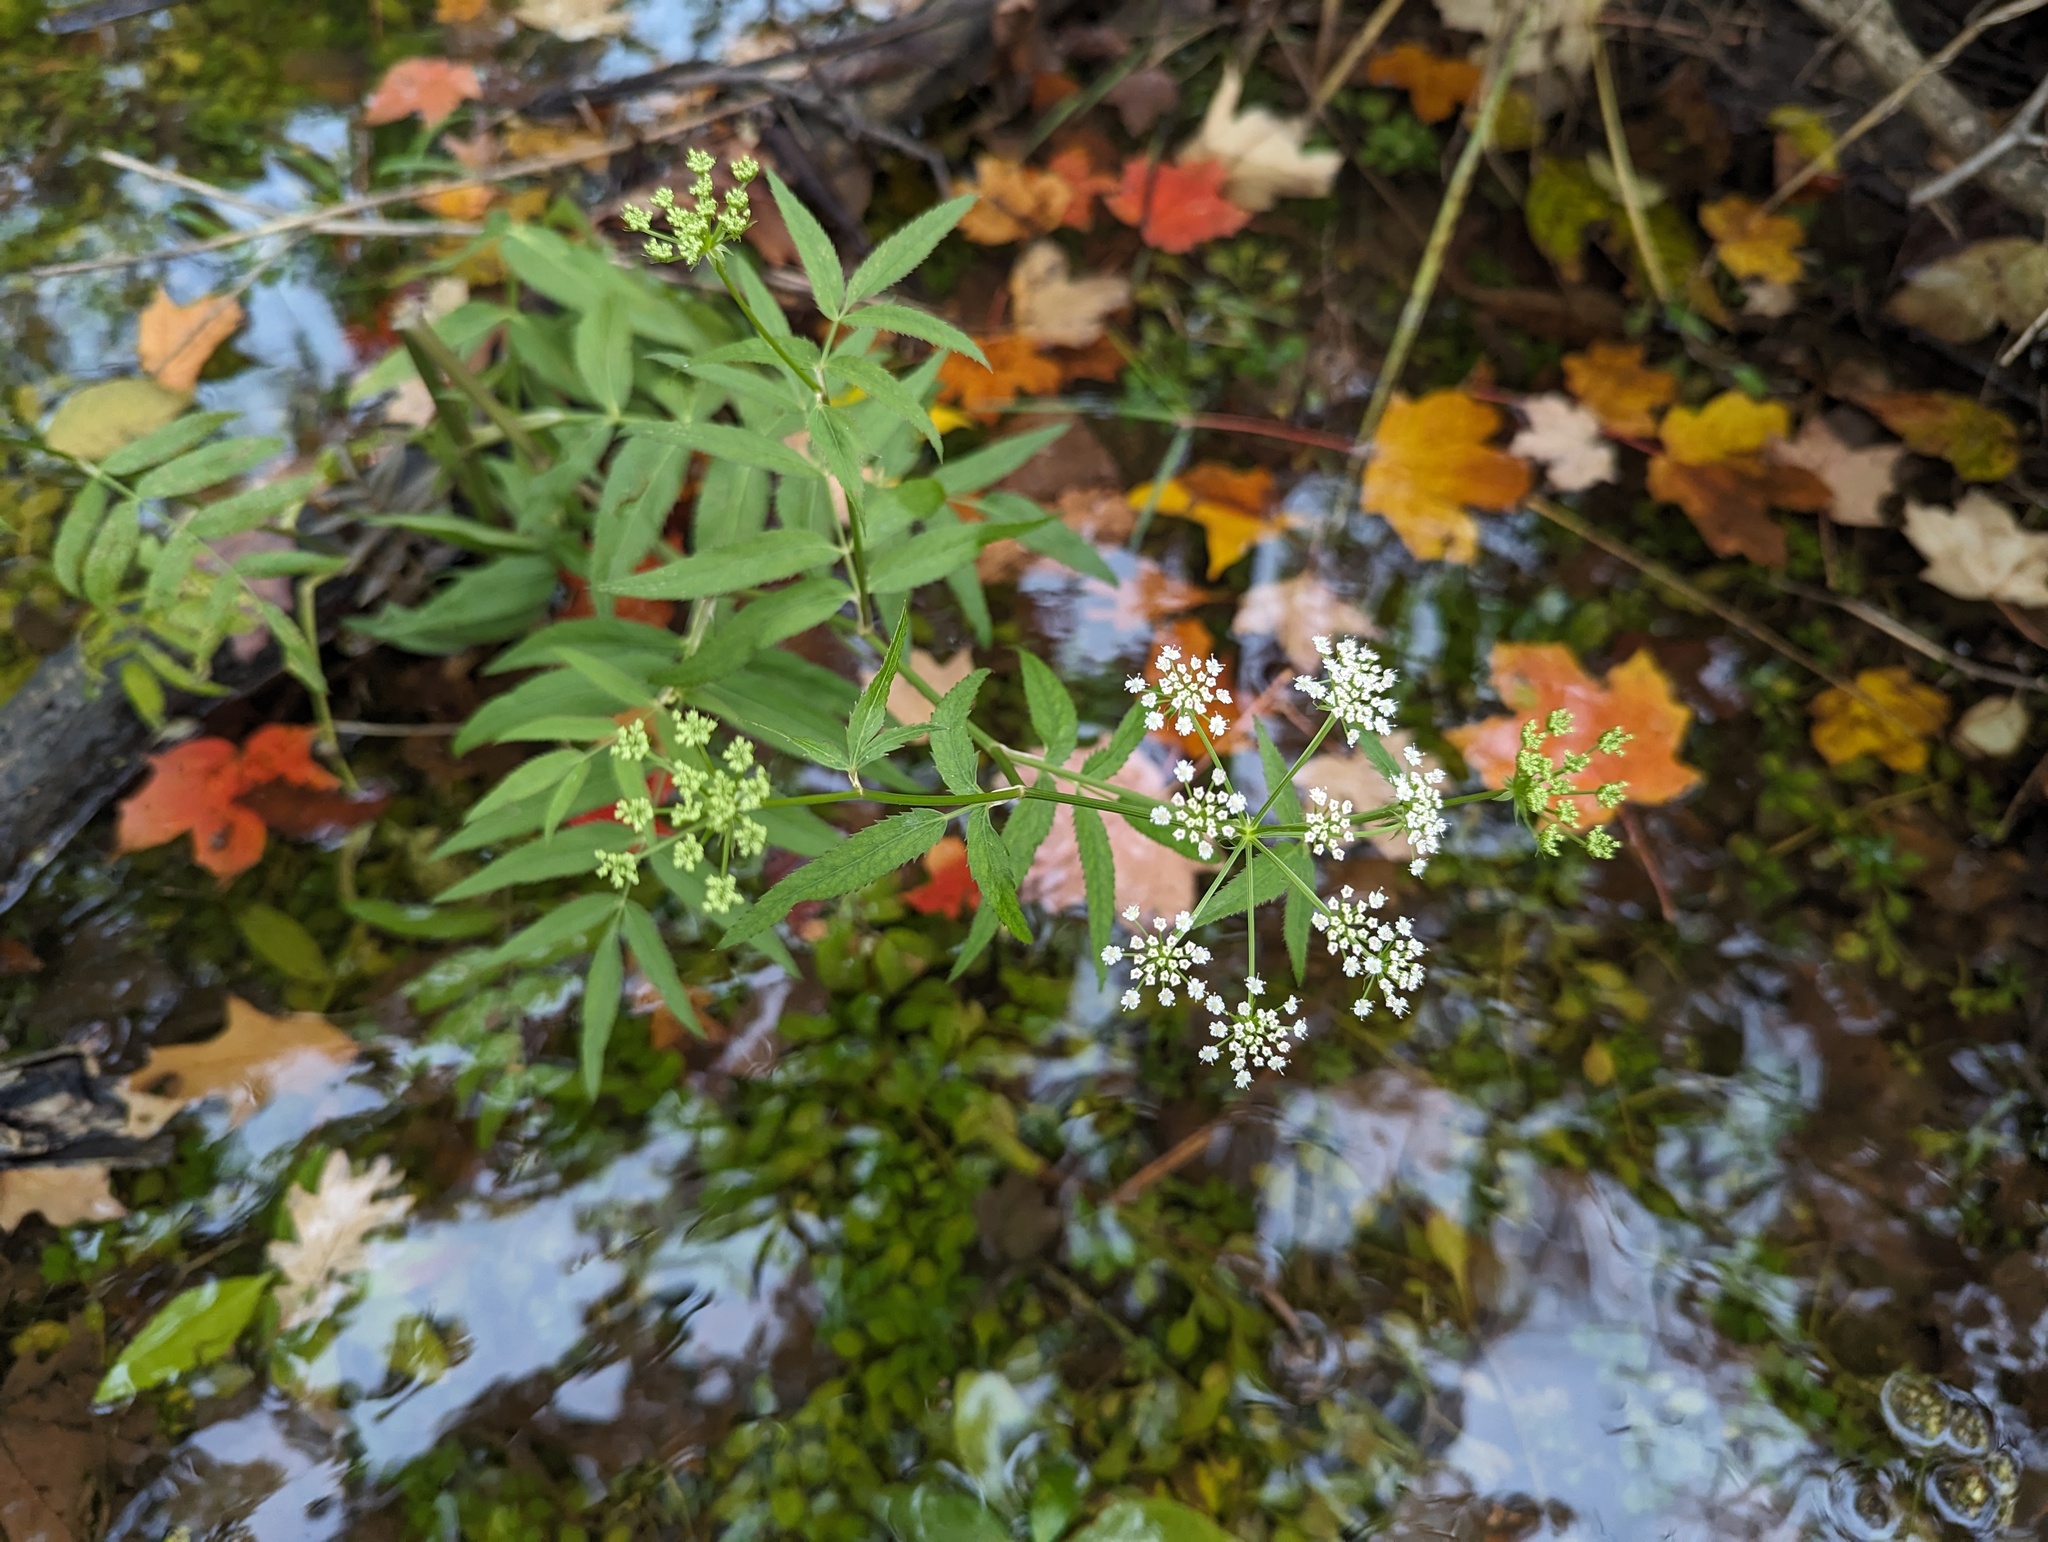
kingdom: Plantae
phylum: Tracheophyta
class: Magnoliopsida
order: Apiales
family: Apiaceae
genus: Sium
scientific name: Sium suave
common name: Hemlock water-parsnip
